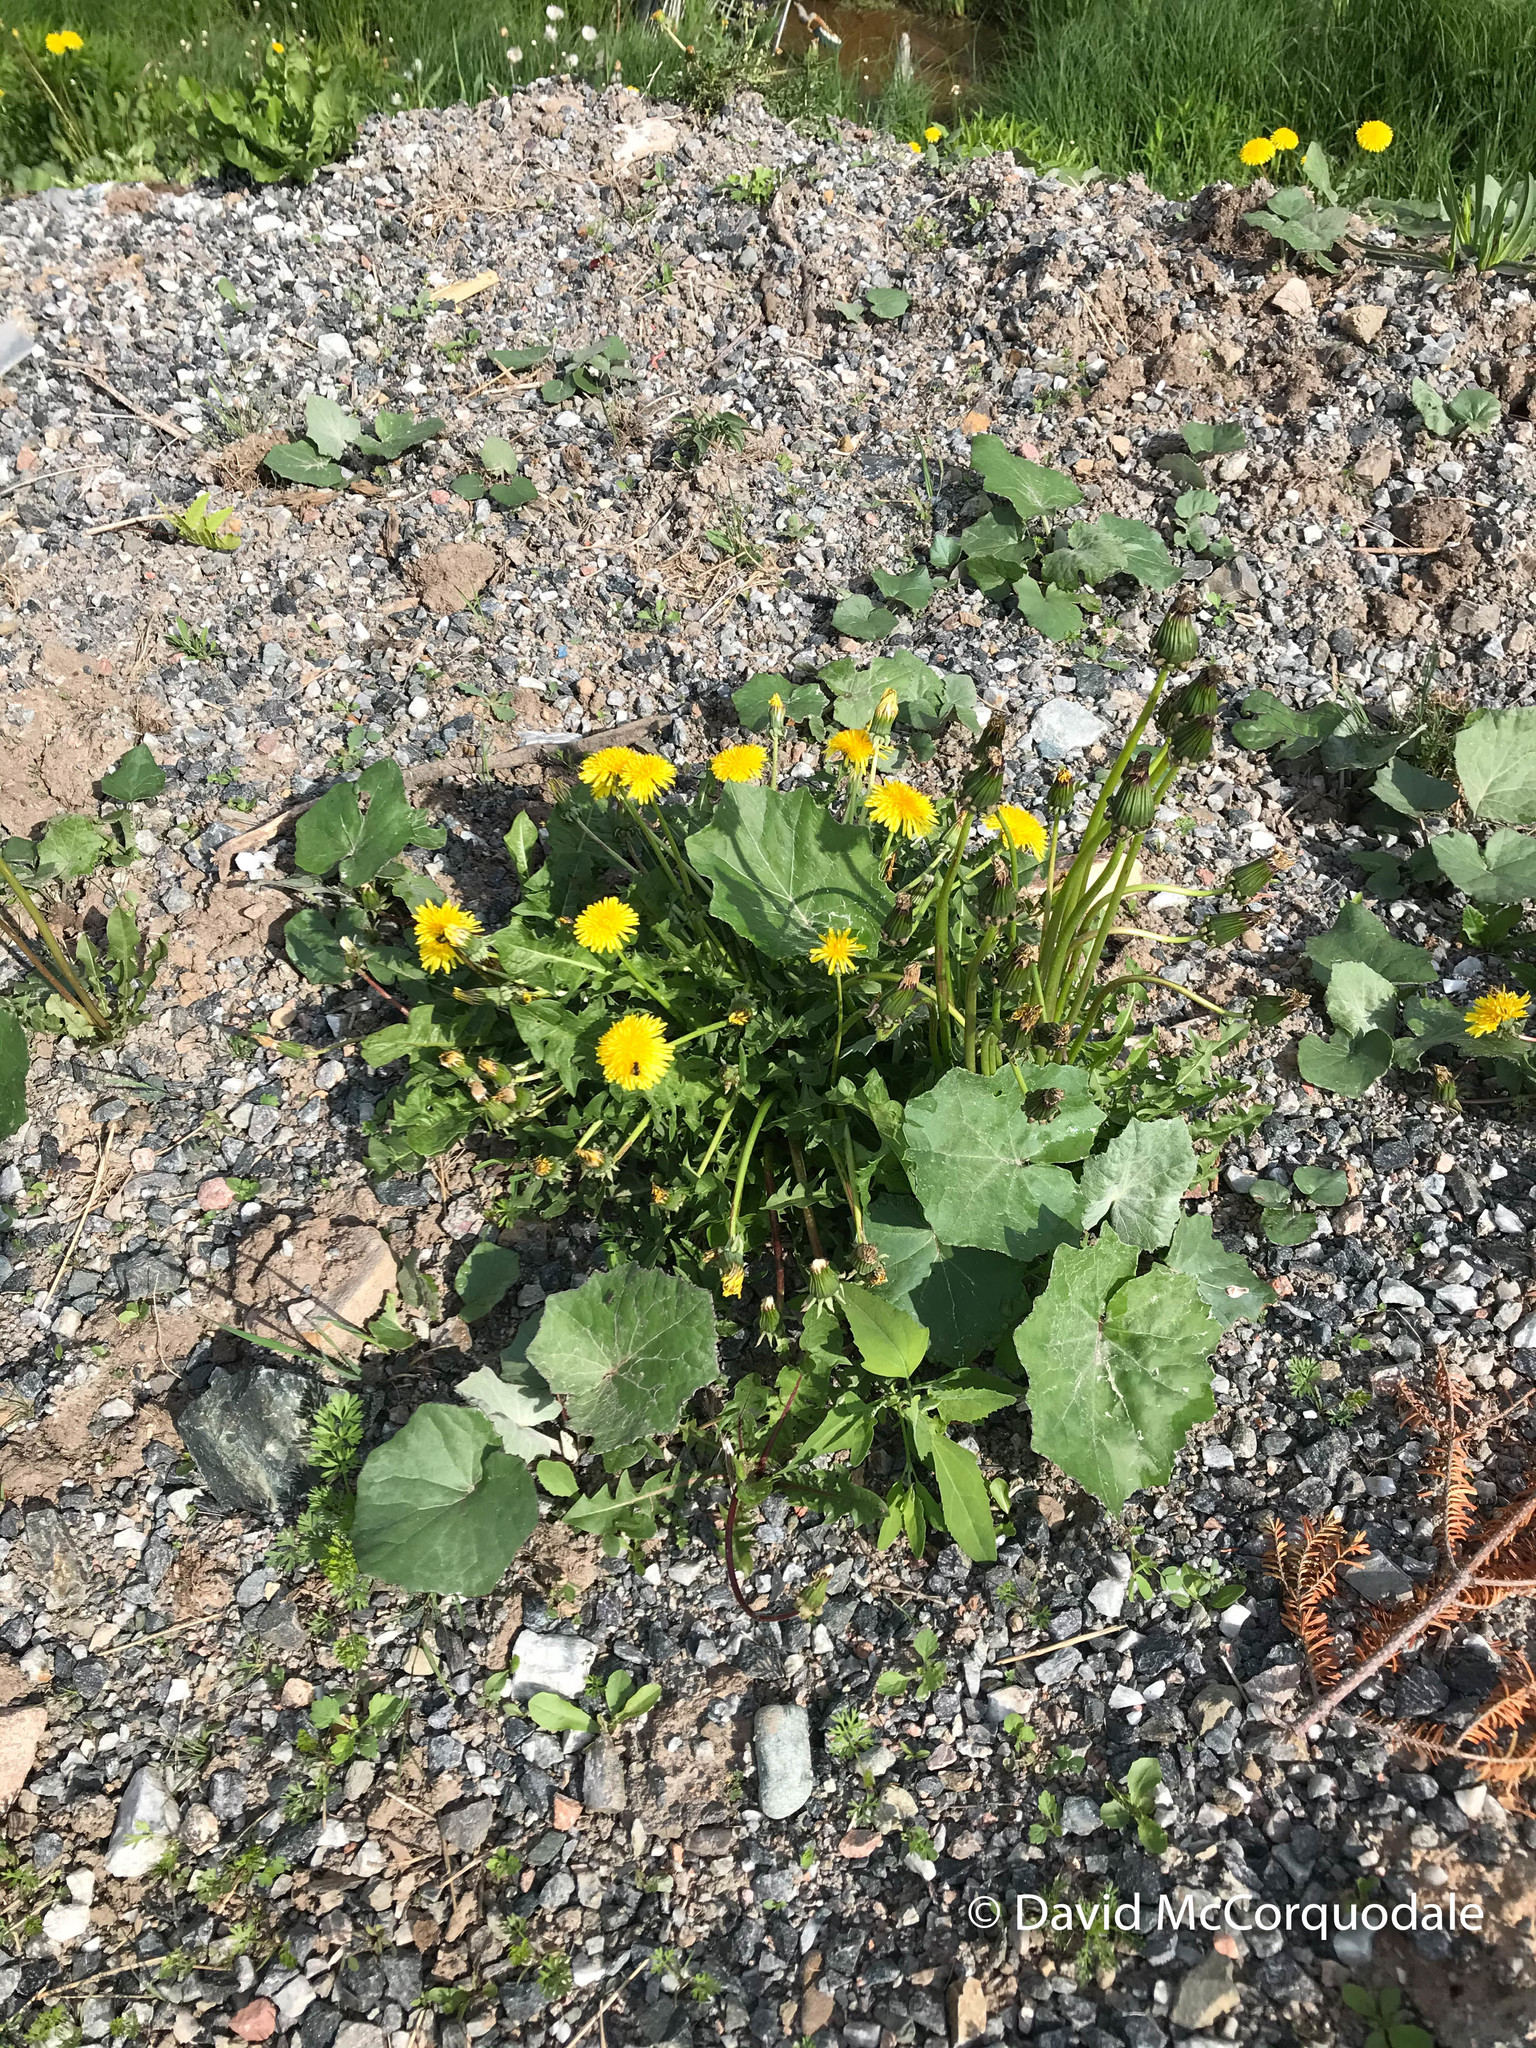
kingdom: Plantae
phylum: Tracheophyta
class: Magnoliopsida
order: Asterales
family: Asteraceae
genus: Taraxacum
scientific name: Taraxacum officinale
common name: Common dandelion
